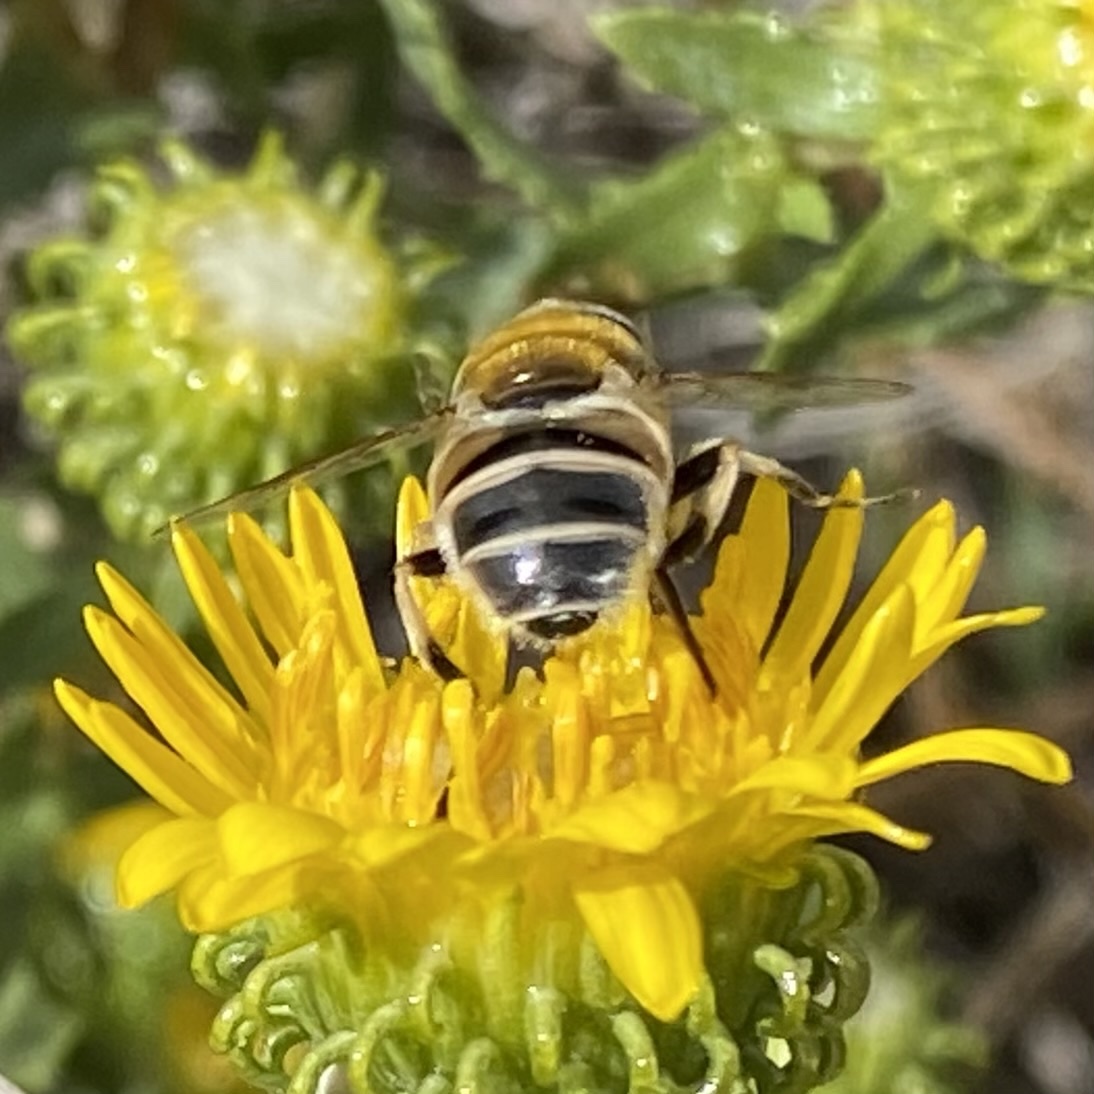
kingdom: Animalia
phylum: Arthropoda
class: Insecta
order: Diptera
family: Syrphidae
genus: Eristalis
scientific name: Eristalis stipator
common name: Yellow-shouldered drone fly
